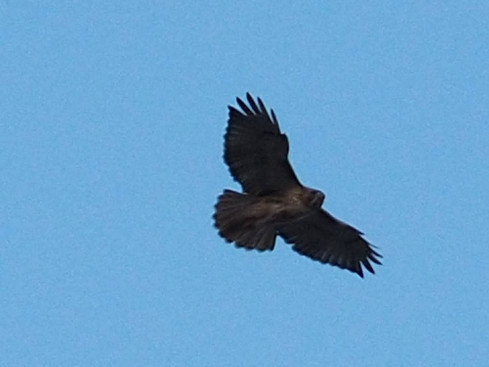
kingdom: Animalia
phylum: Chordata
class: Aves
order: Accipitriformes
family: Accipitridae
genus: Buteo
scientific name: Buteo jamaicensis
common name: Red-tailed hawk
